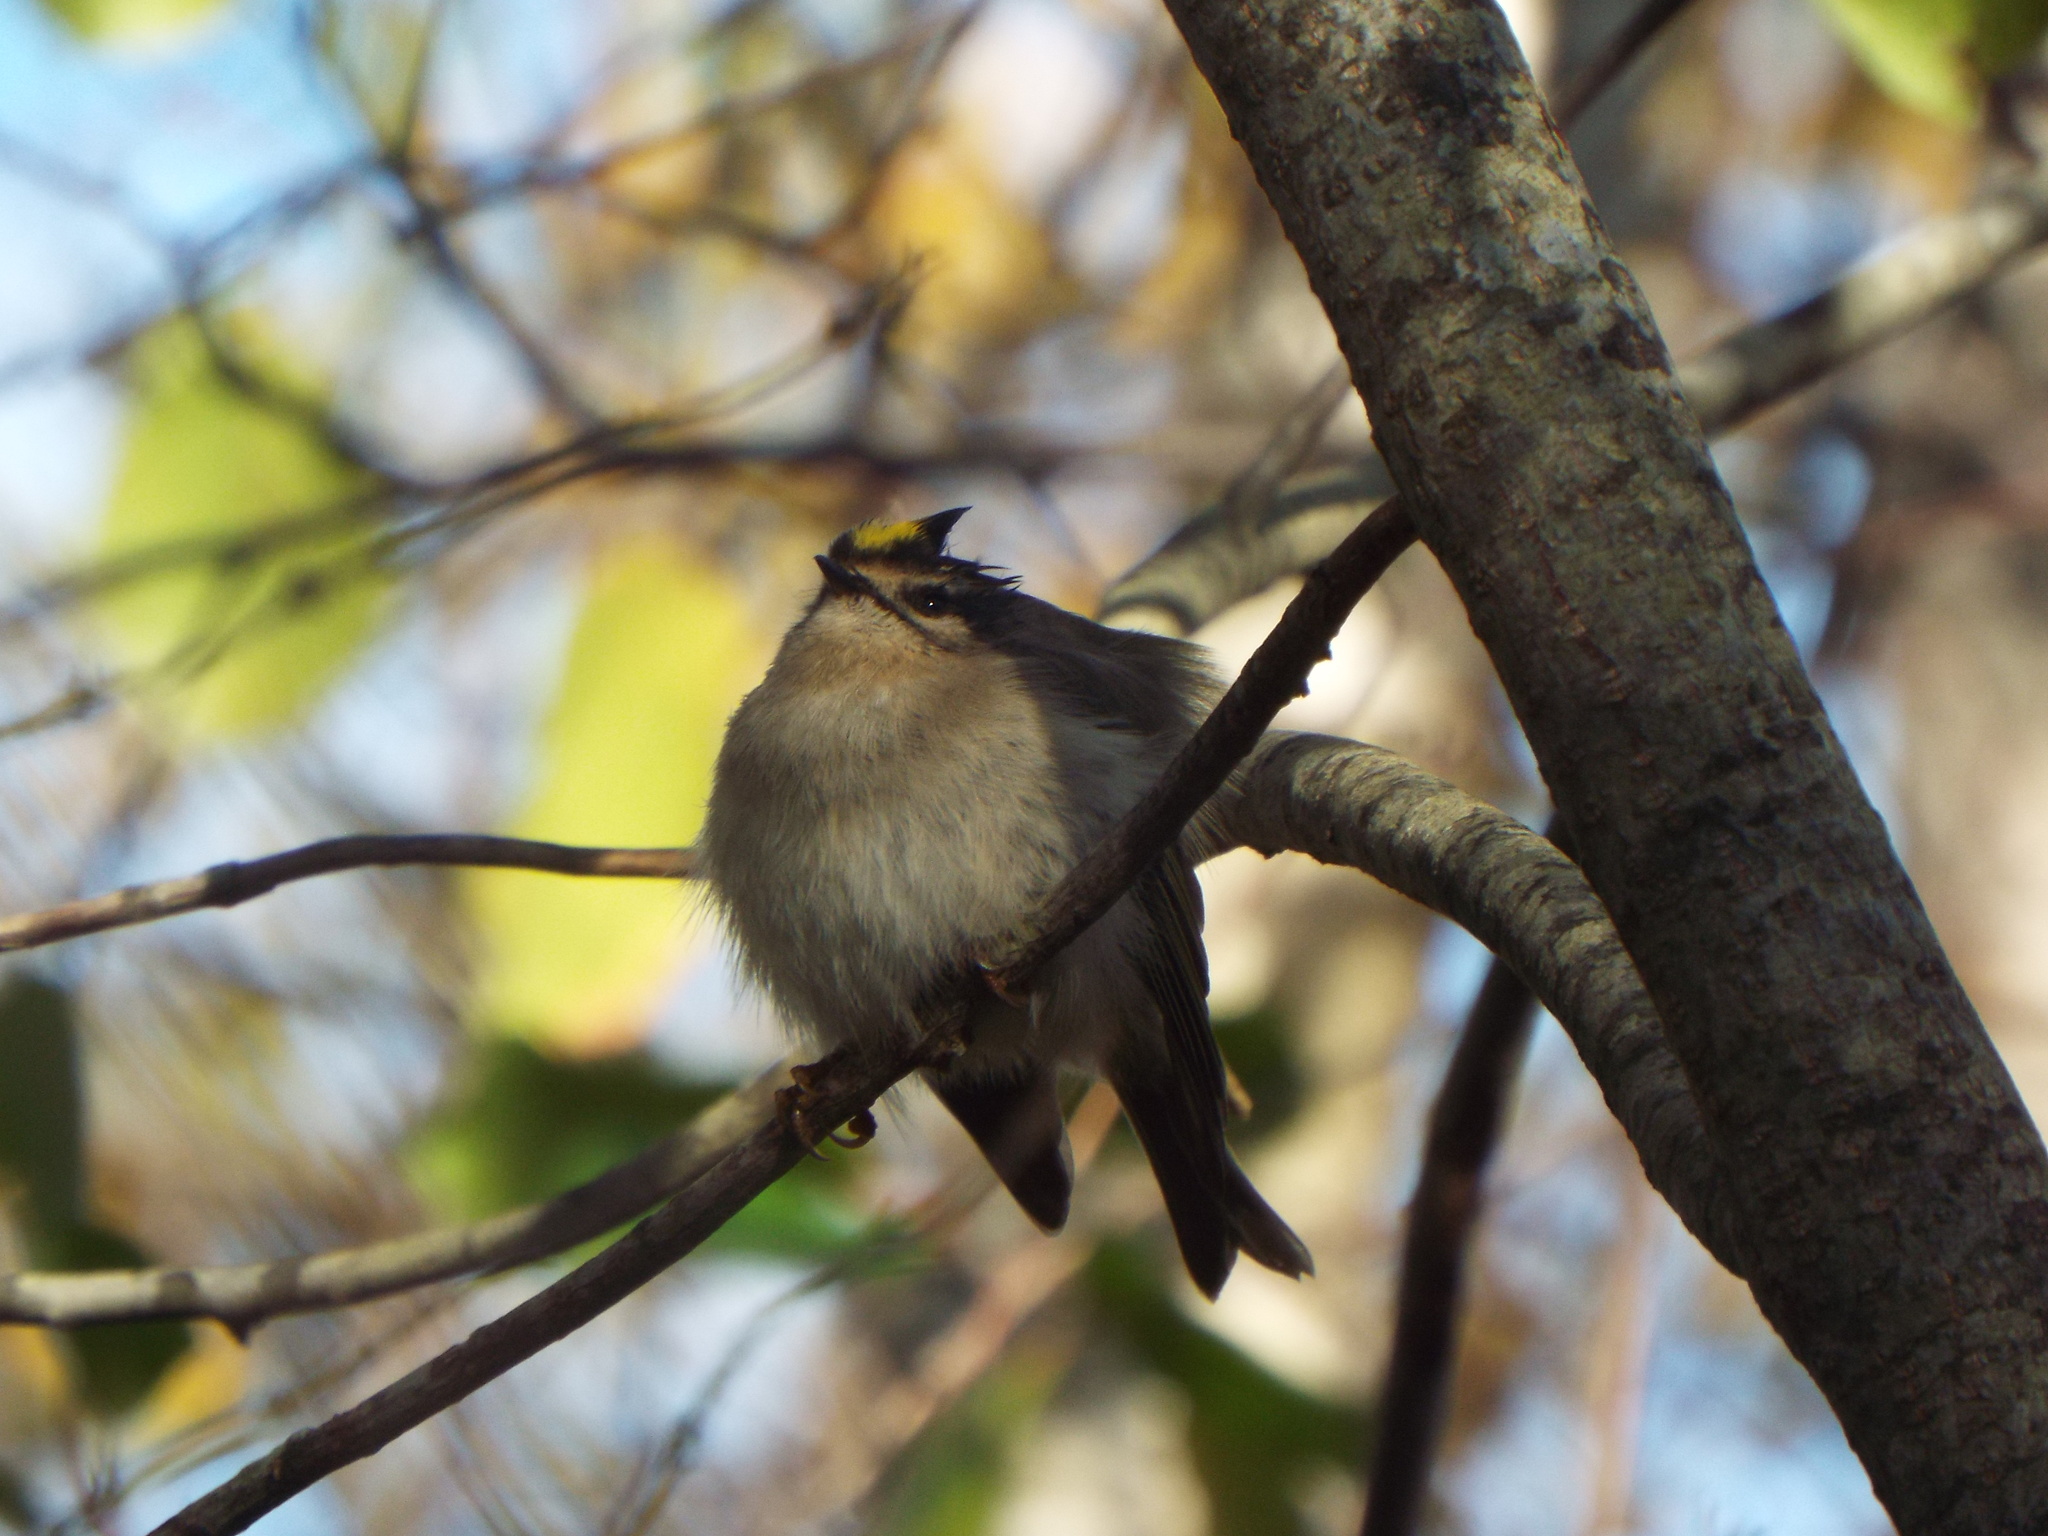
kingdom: Animalia
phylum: Chordata
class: Aves
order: Passeriformes
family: Regulidae
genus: Regulus
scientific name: Regulus satrapa
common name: Golden-crowned kinglet
